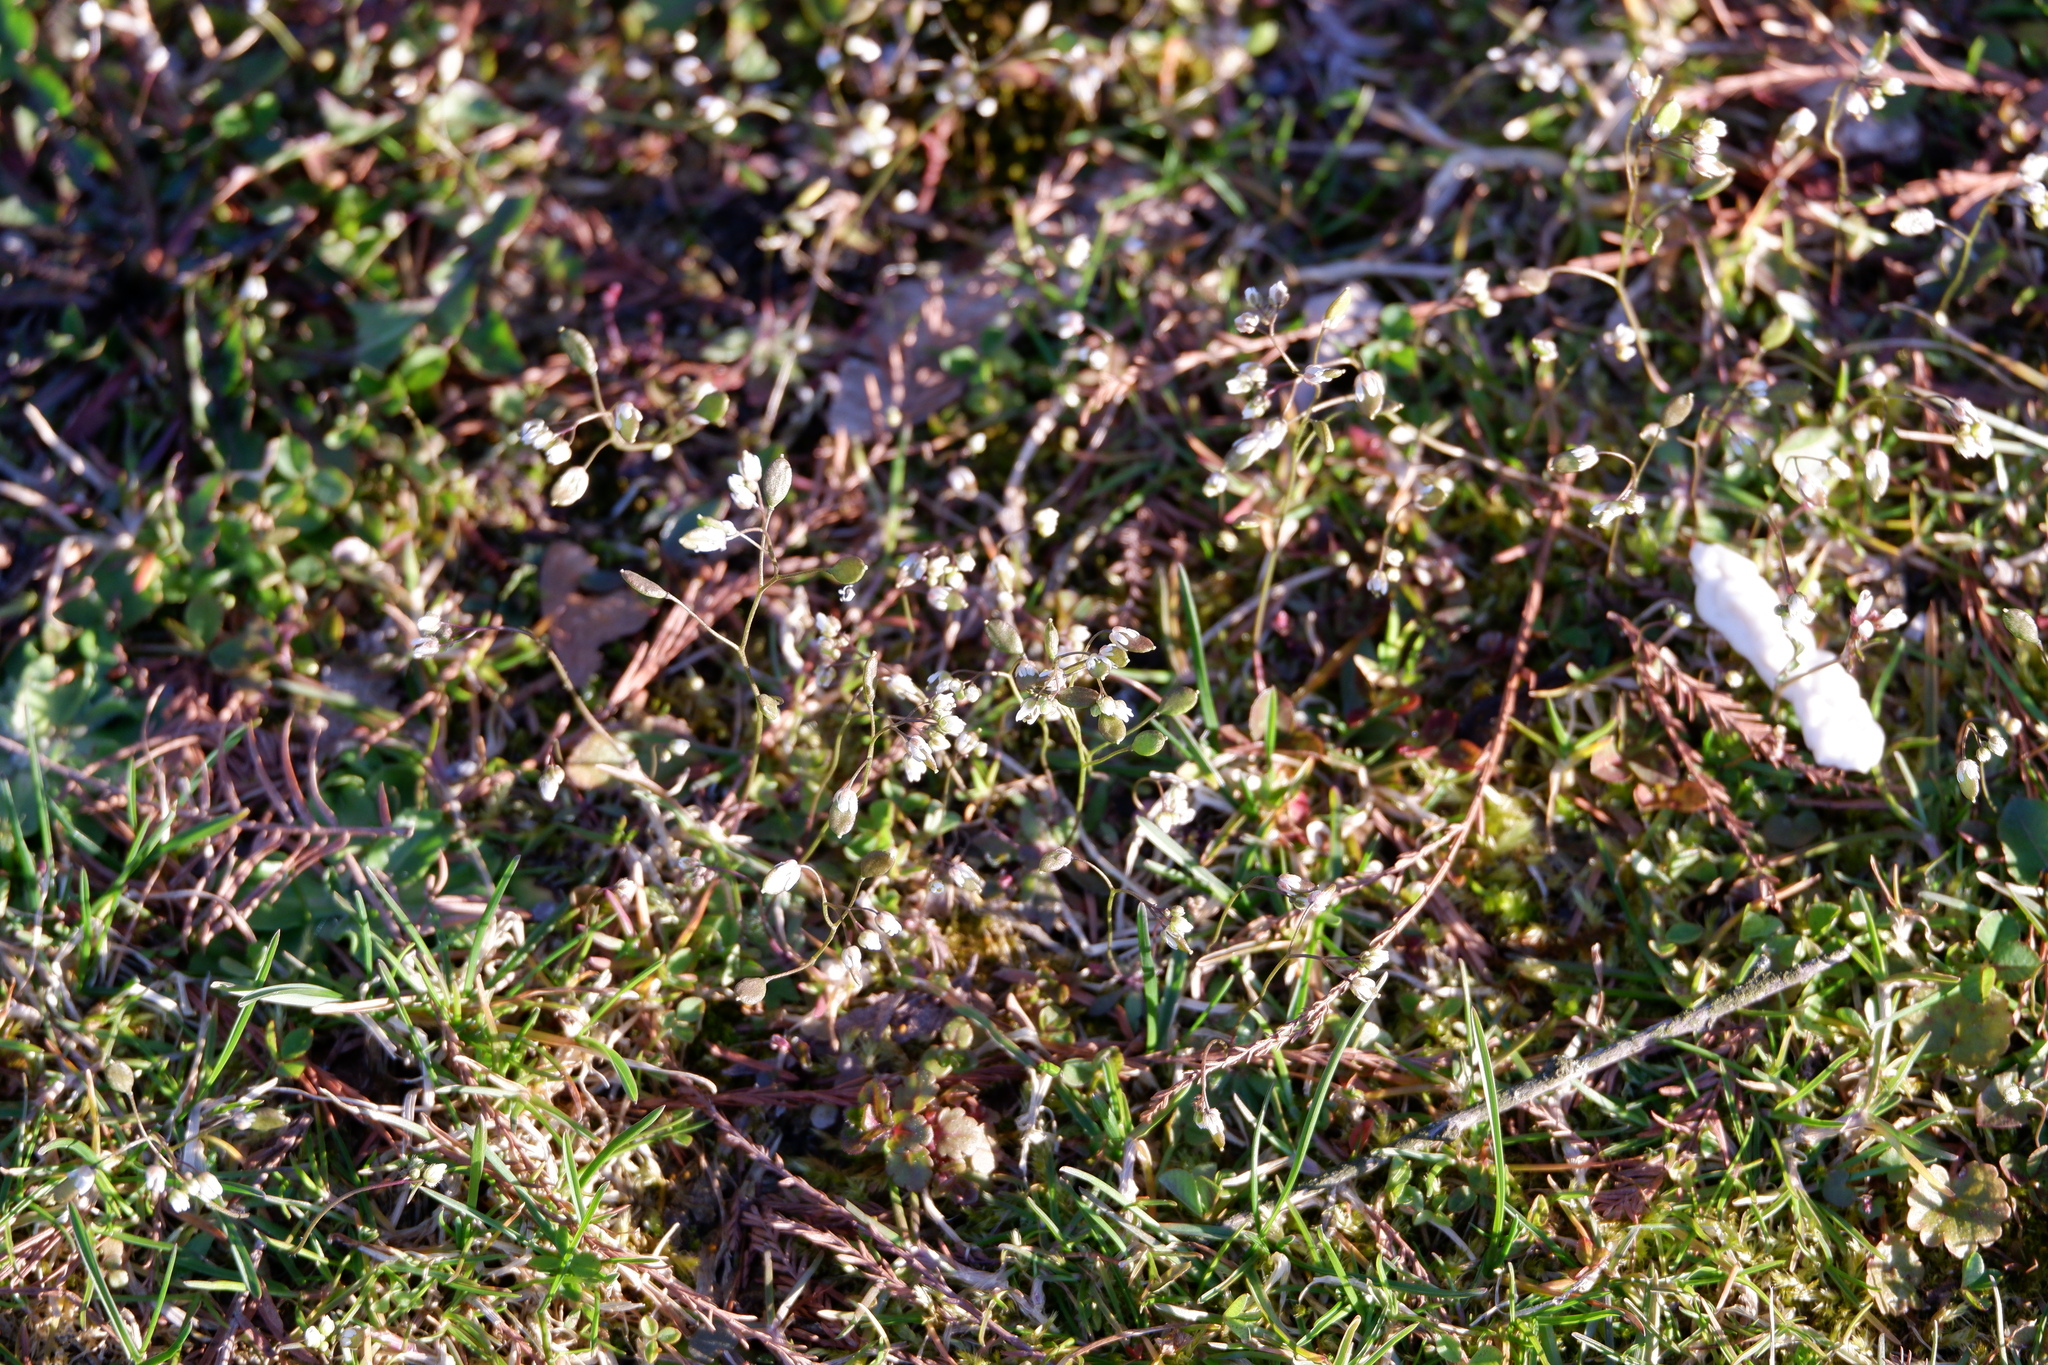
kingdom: Plantae
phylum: Tracheophyta
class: Magnoliopsida
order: Brassicales
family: Brassicaceae
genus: Draba
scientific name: Draba verna
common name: Spring draba
